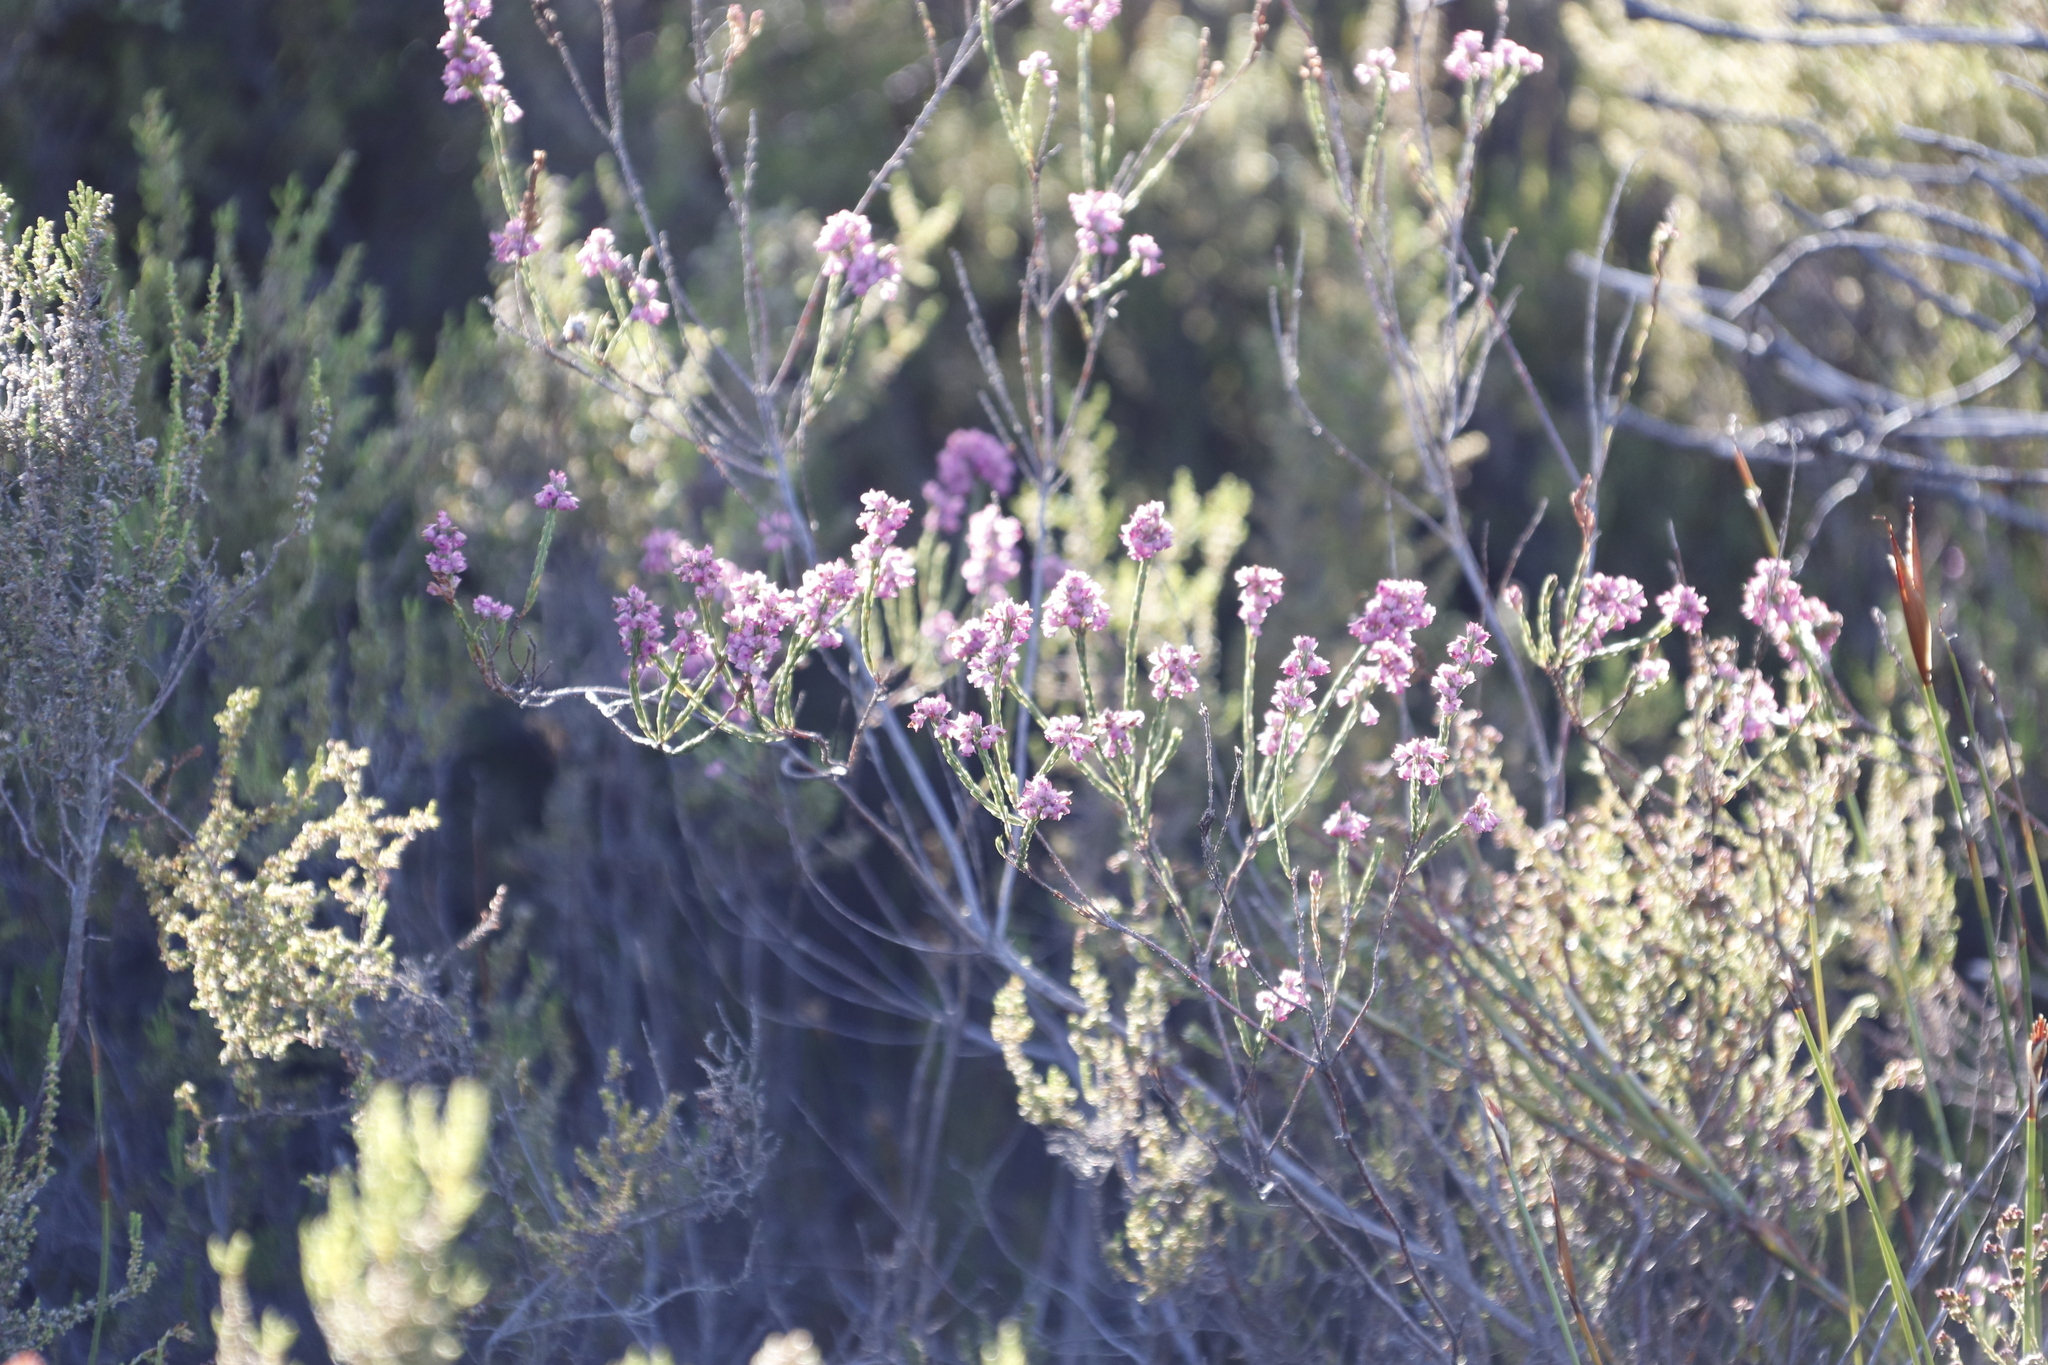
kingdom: Plantae
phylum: Tracheophyta
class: Magnoliopsida
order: Ericales
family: Ericaceae
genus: Erica
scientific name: Erica corifolia
